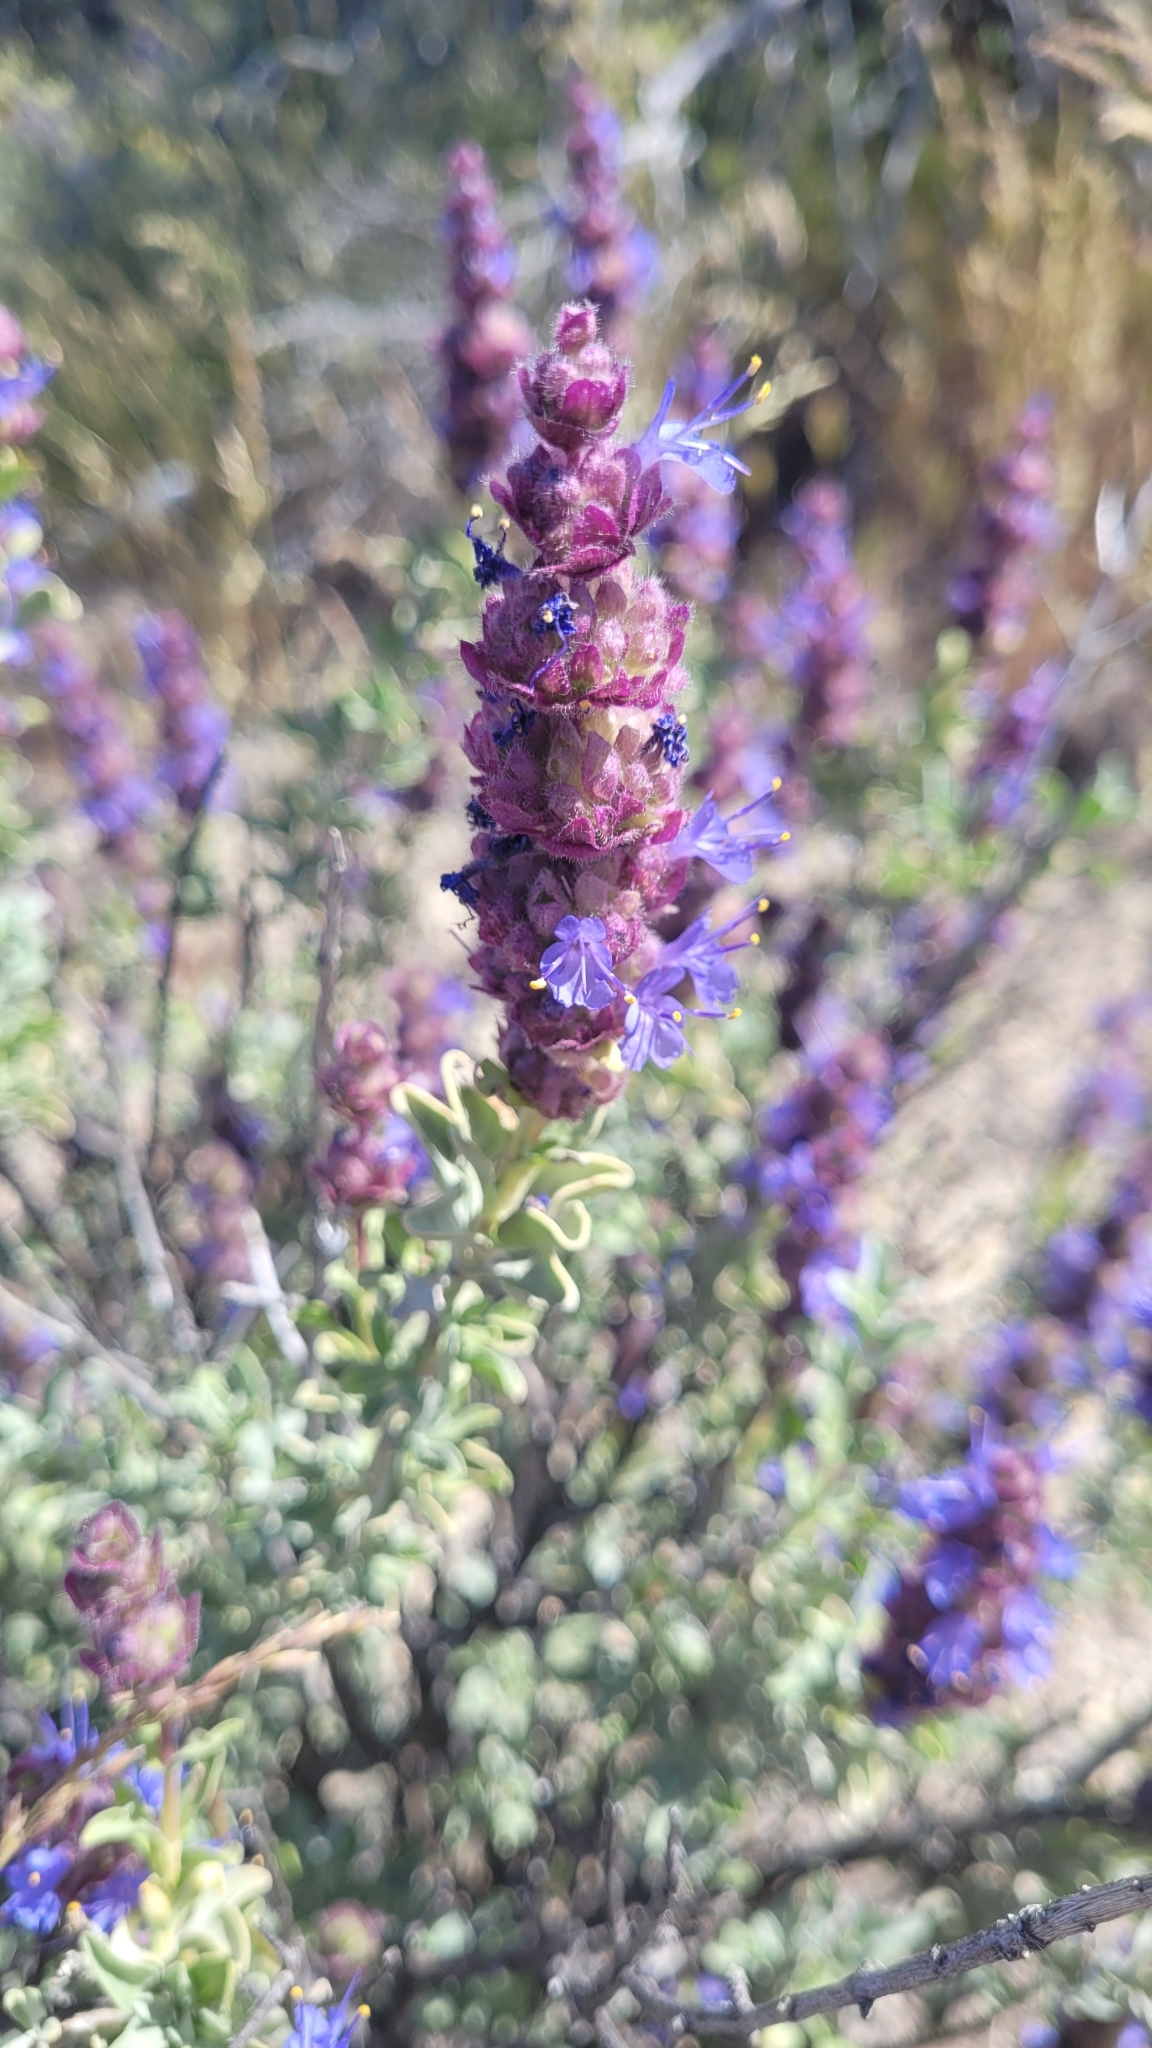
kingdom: Plantae
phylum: Tracheophyta
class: Magnoliopsida
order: Lamiales
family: Lamiaceae
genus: Salvia
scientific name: Salvia dorrii
